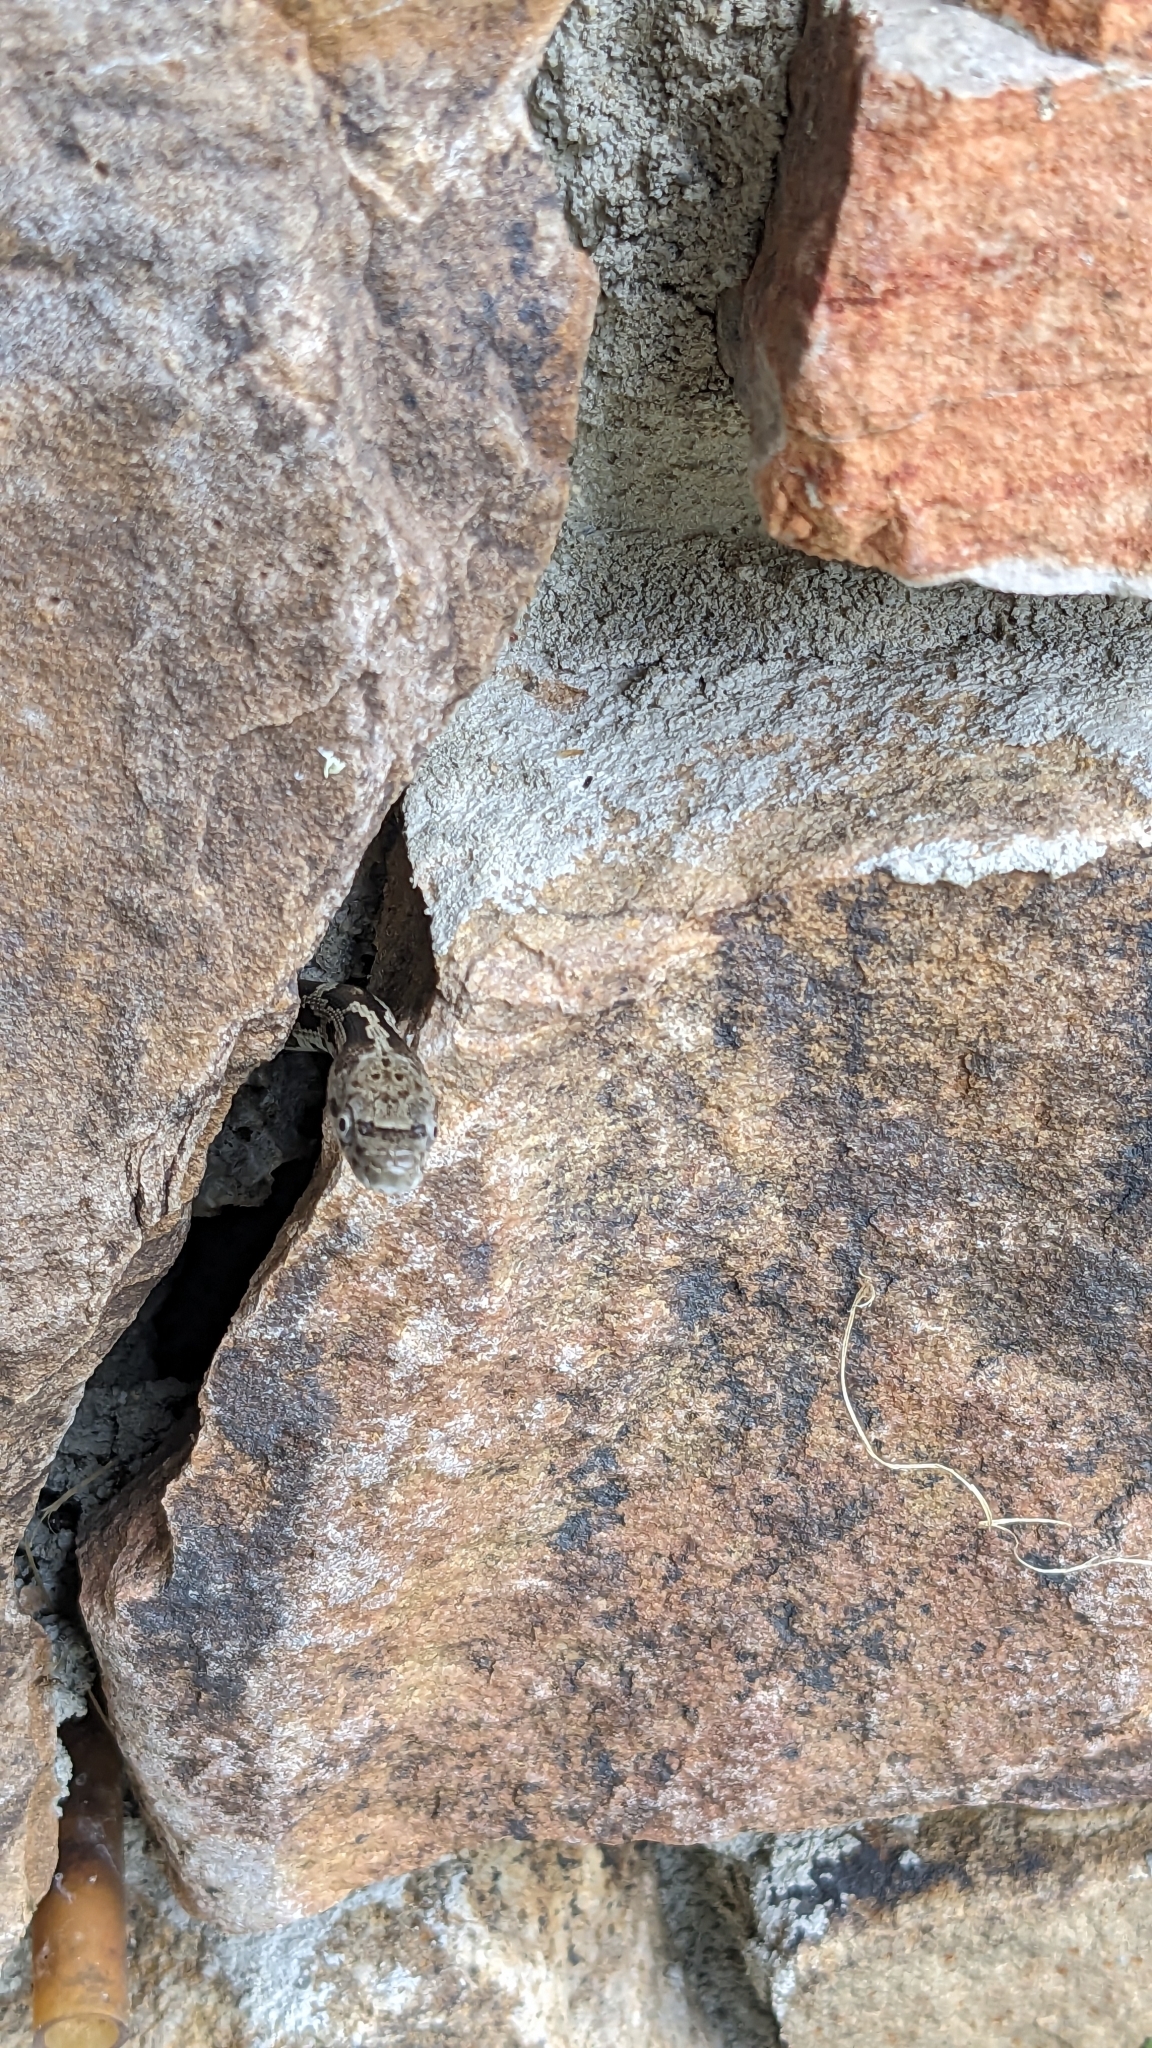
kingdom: Animalia
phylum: Chordata
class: Squamata
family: Colubridae
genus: Pantherophis
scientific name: Pantherophis spiloides
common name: Gray rat snake
